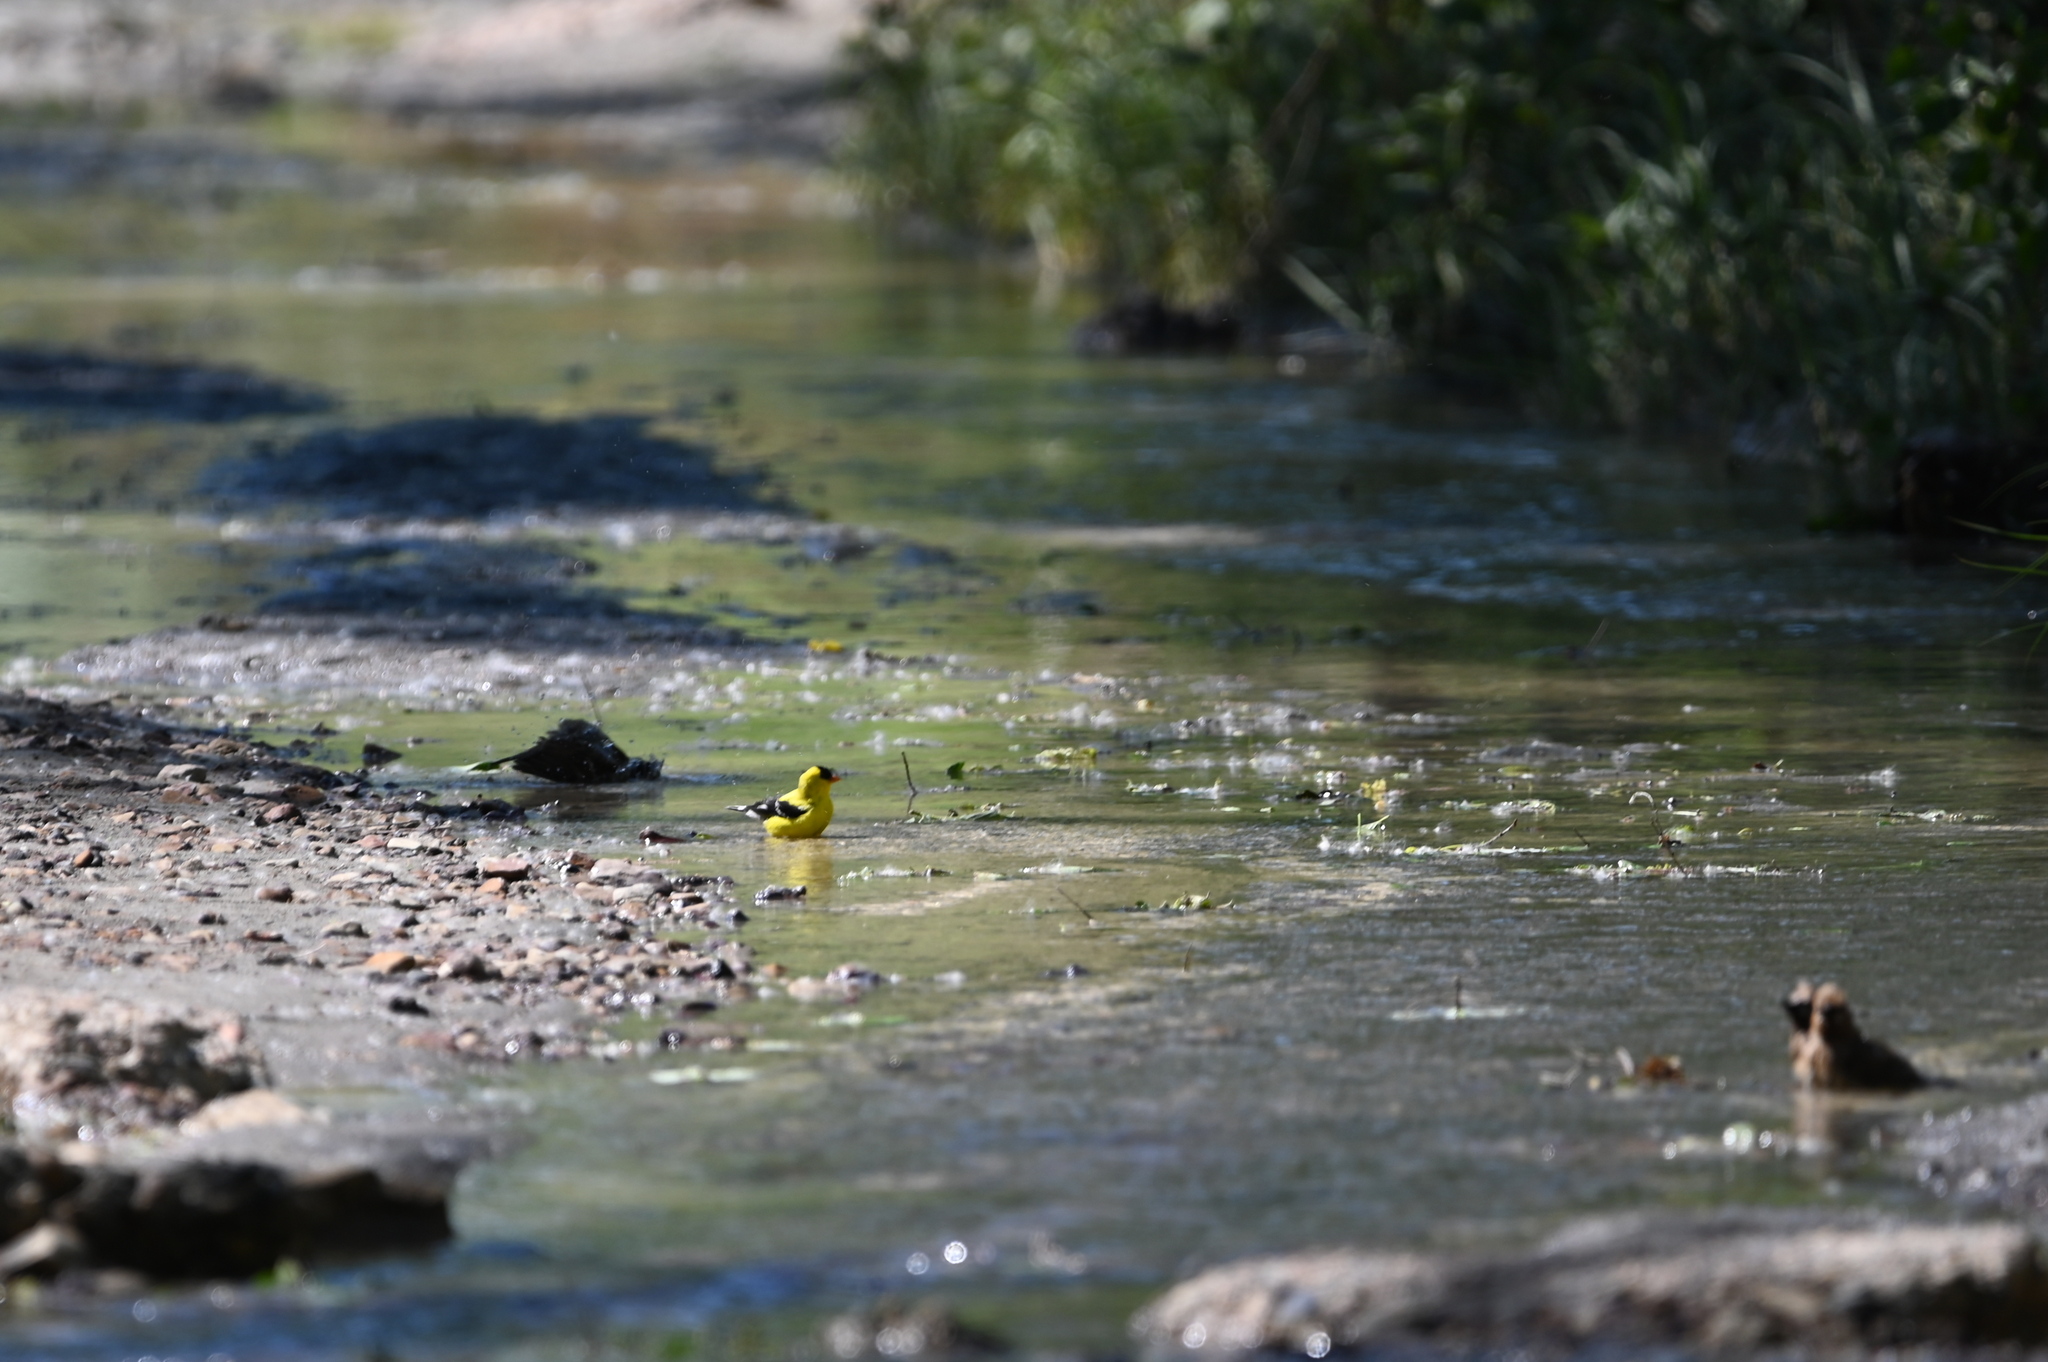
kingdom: Animalia
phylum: Chordata
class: Aves
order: Passeriformes
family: Fringillidae
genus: Spinus
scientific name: Spinus tristis
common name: American goldfinch
